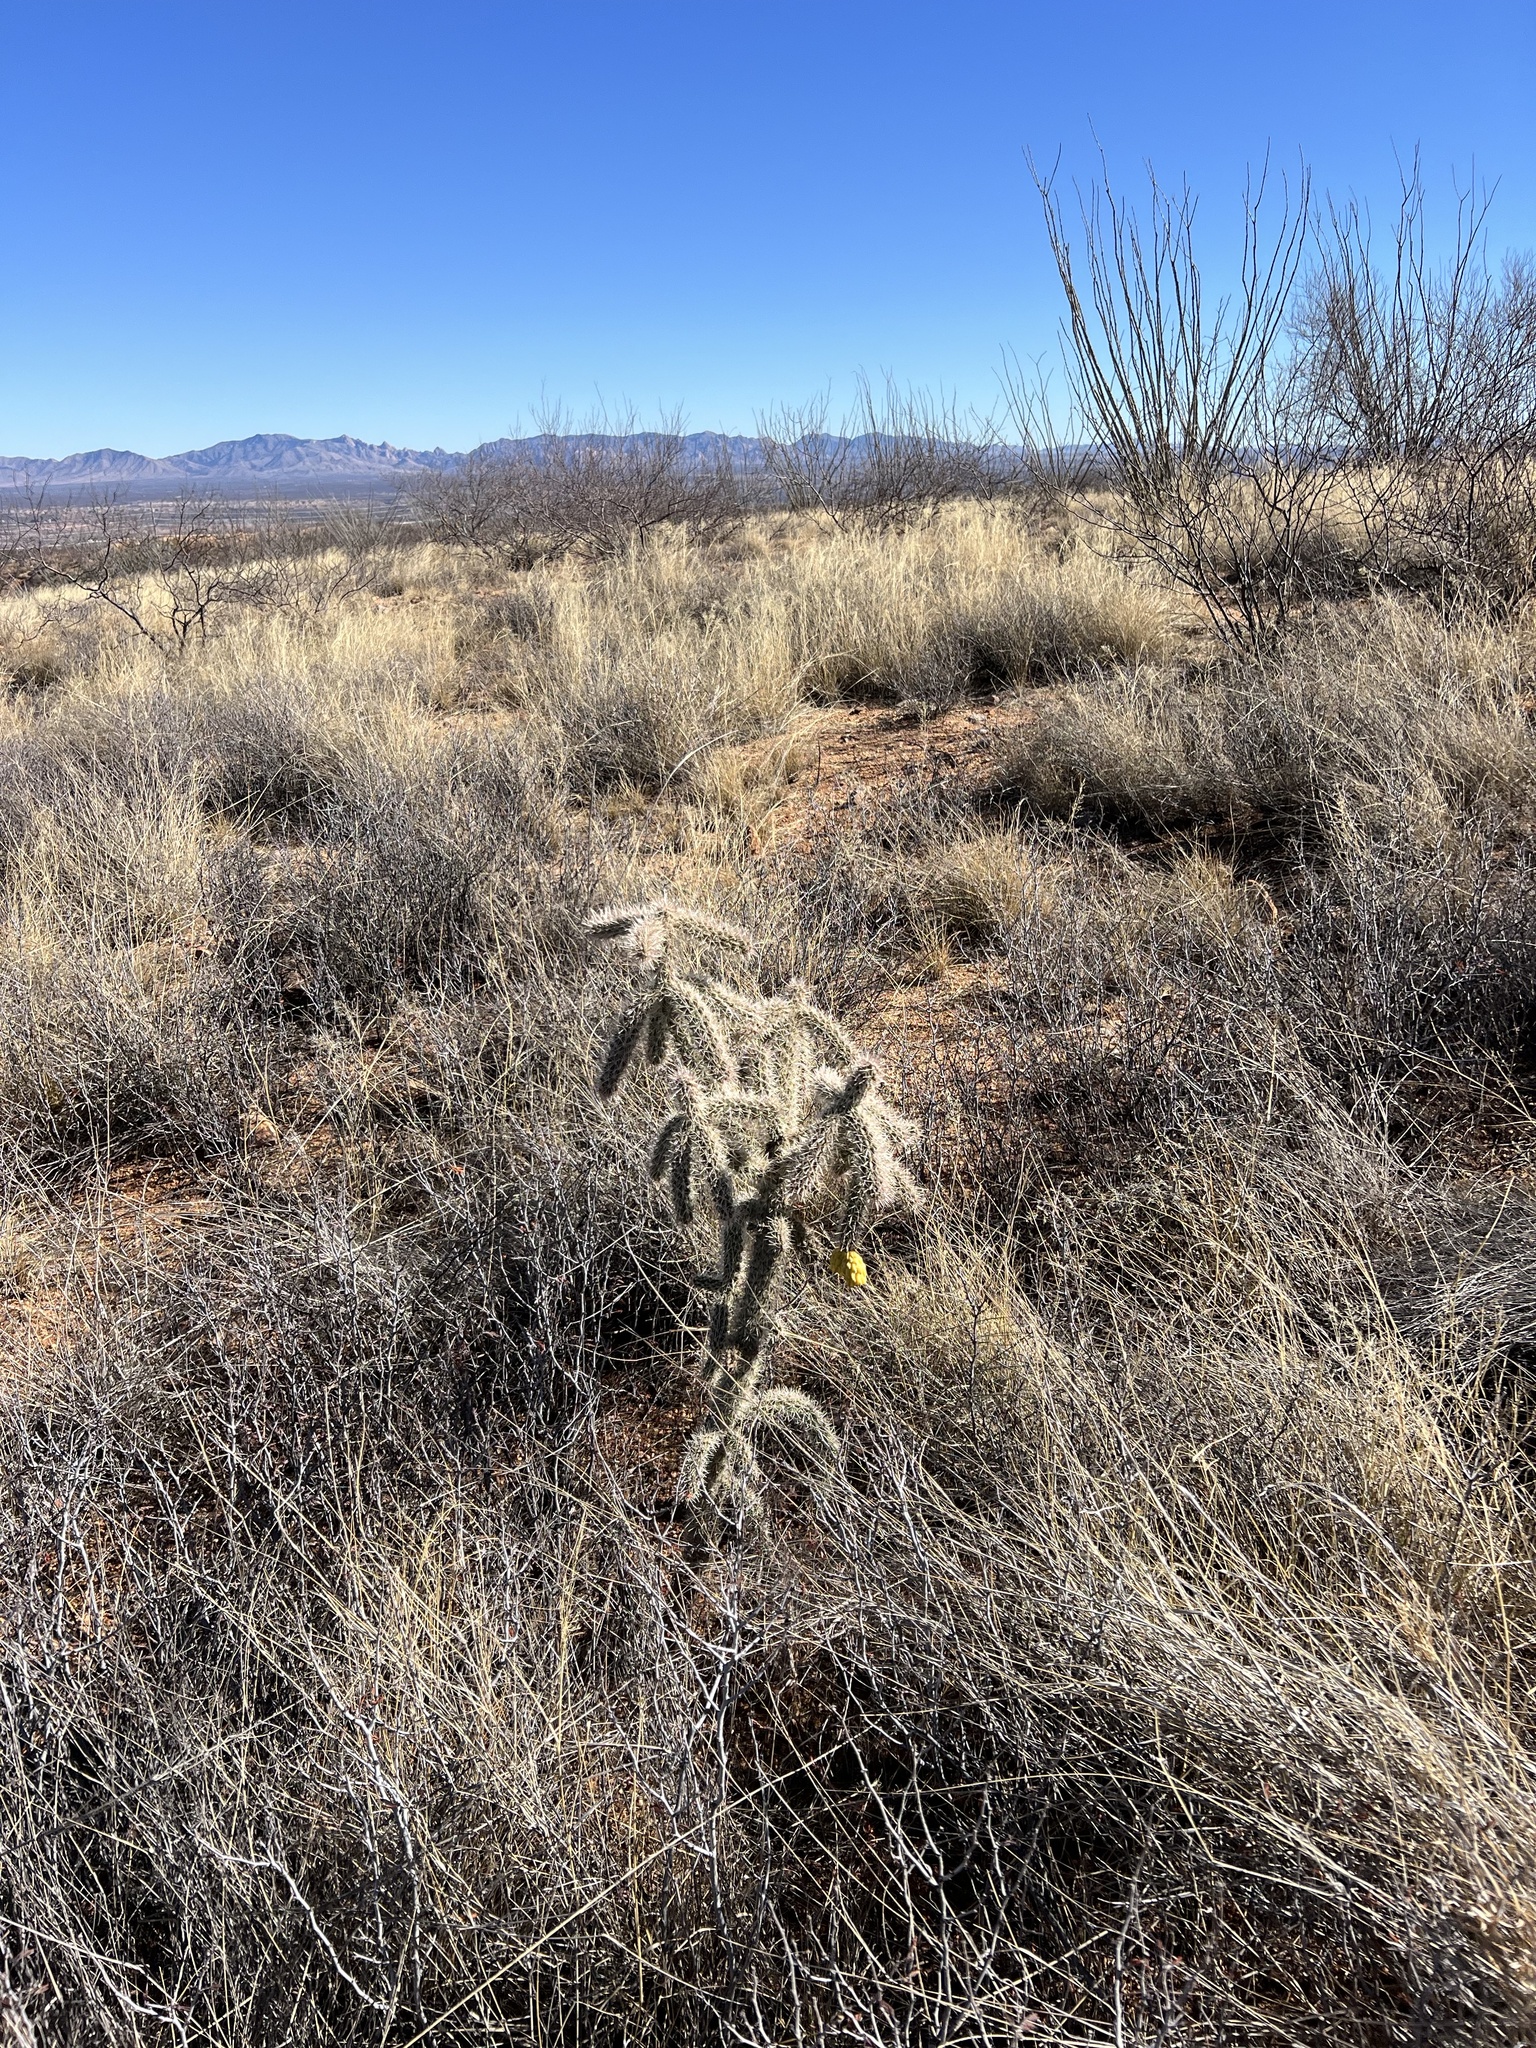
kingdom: Plantae
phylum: Tracheophyta
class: Magnoliopsida
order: Caryophyllales
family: Cactaceae
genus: Cylindropuntia
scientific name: Cylindropuntia imbricata
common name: Candelabrum cactus
